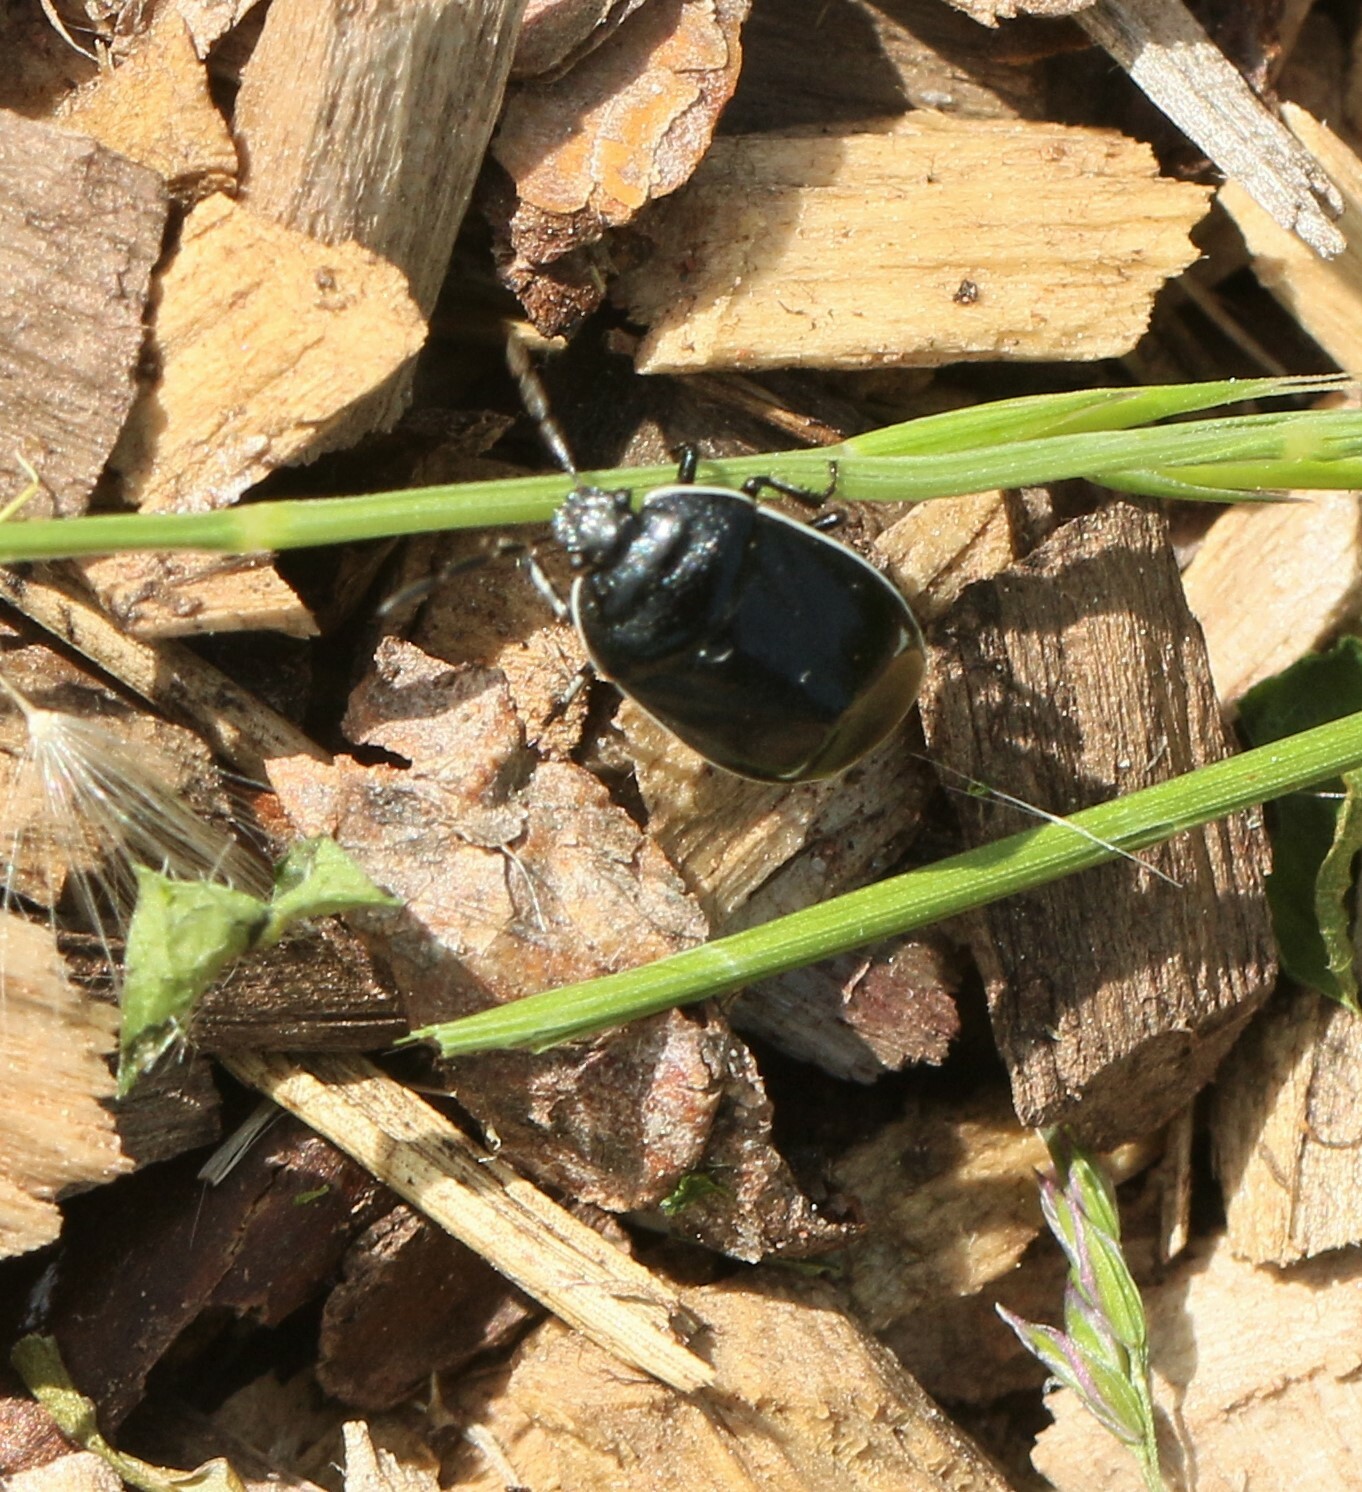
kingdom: Animalia
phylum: Arthropoda
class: Insecta
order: Hemiptera
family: Cydnidae
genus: Sehirus
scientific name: Sehirus cinctus
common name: White-margined burrower bug
